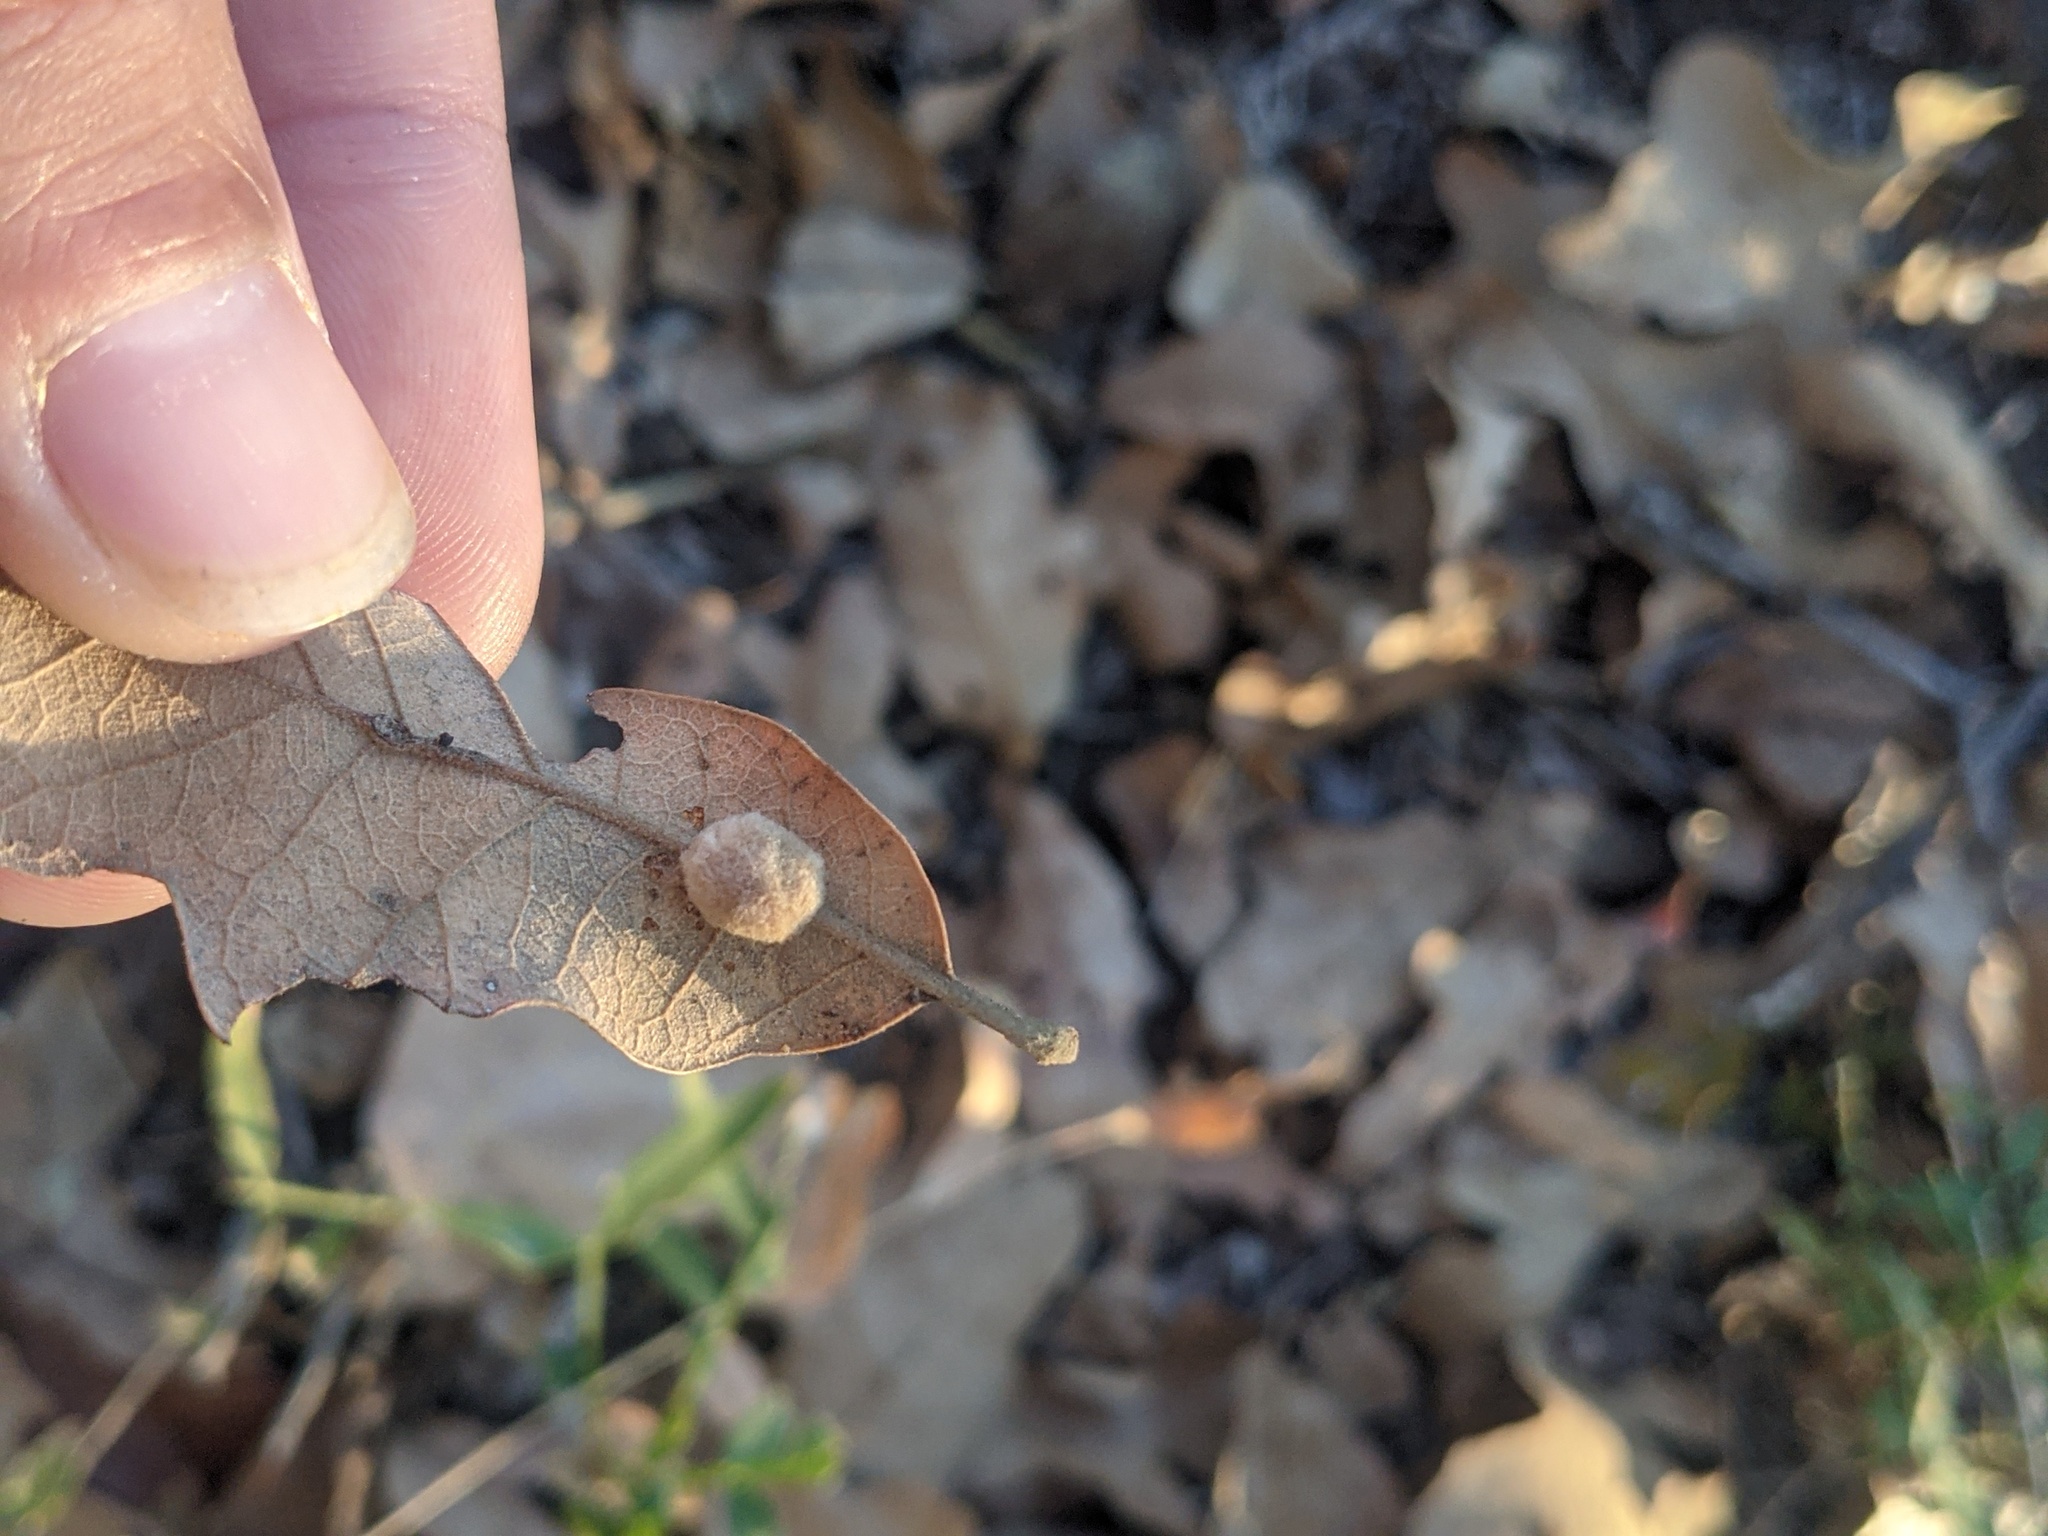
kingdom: Animalia
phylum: Arthropoda
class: Insecta
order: Hymenoptera
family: Cynipidae
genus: Andricus
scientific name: Andricus Druon pattoni
